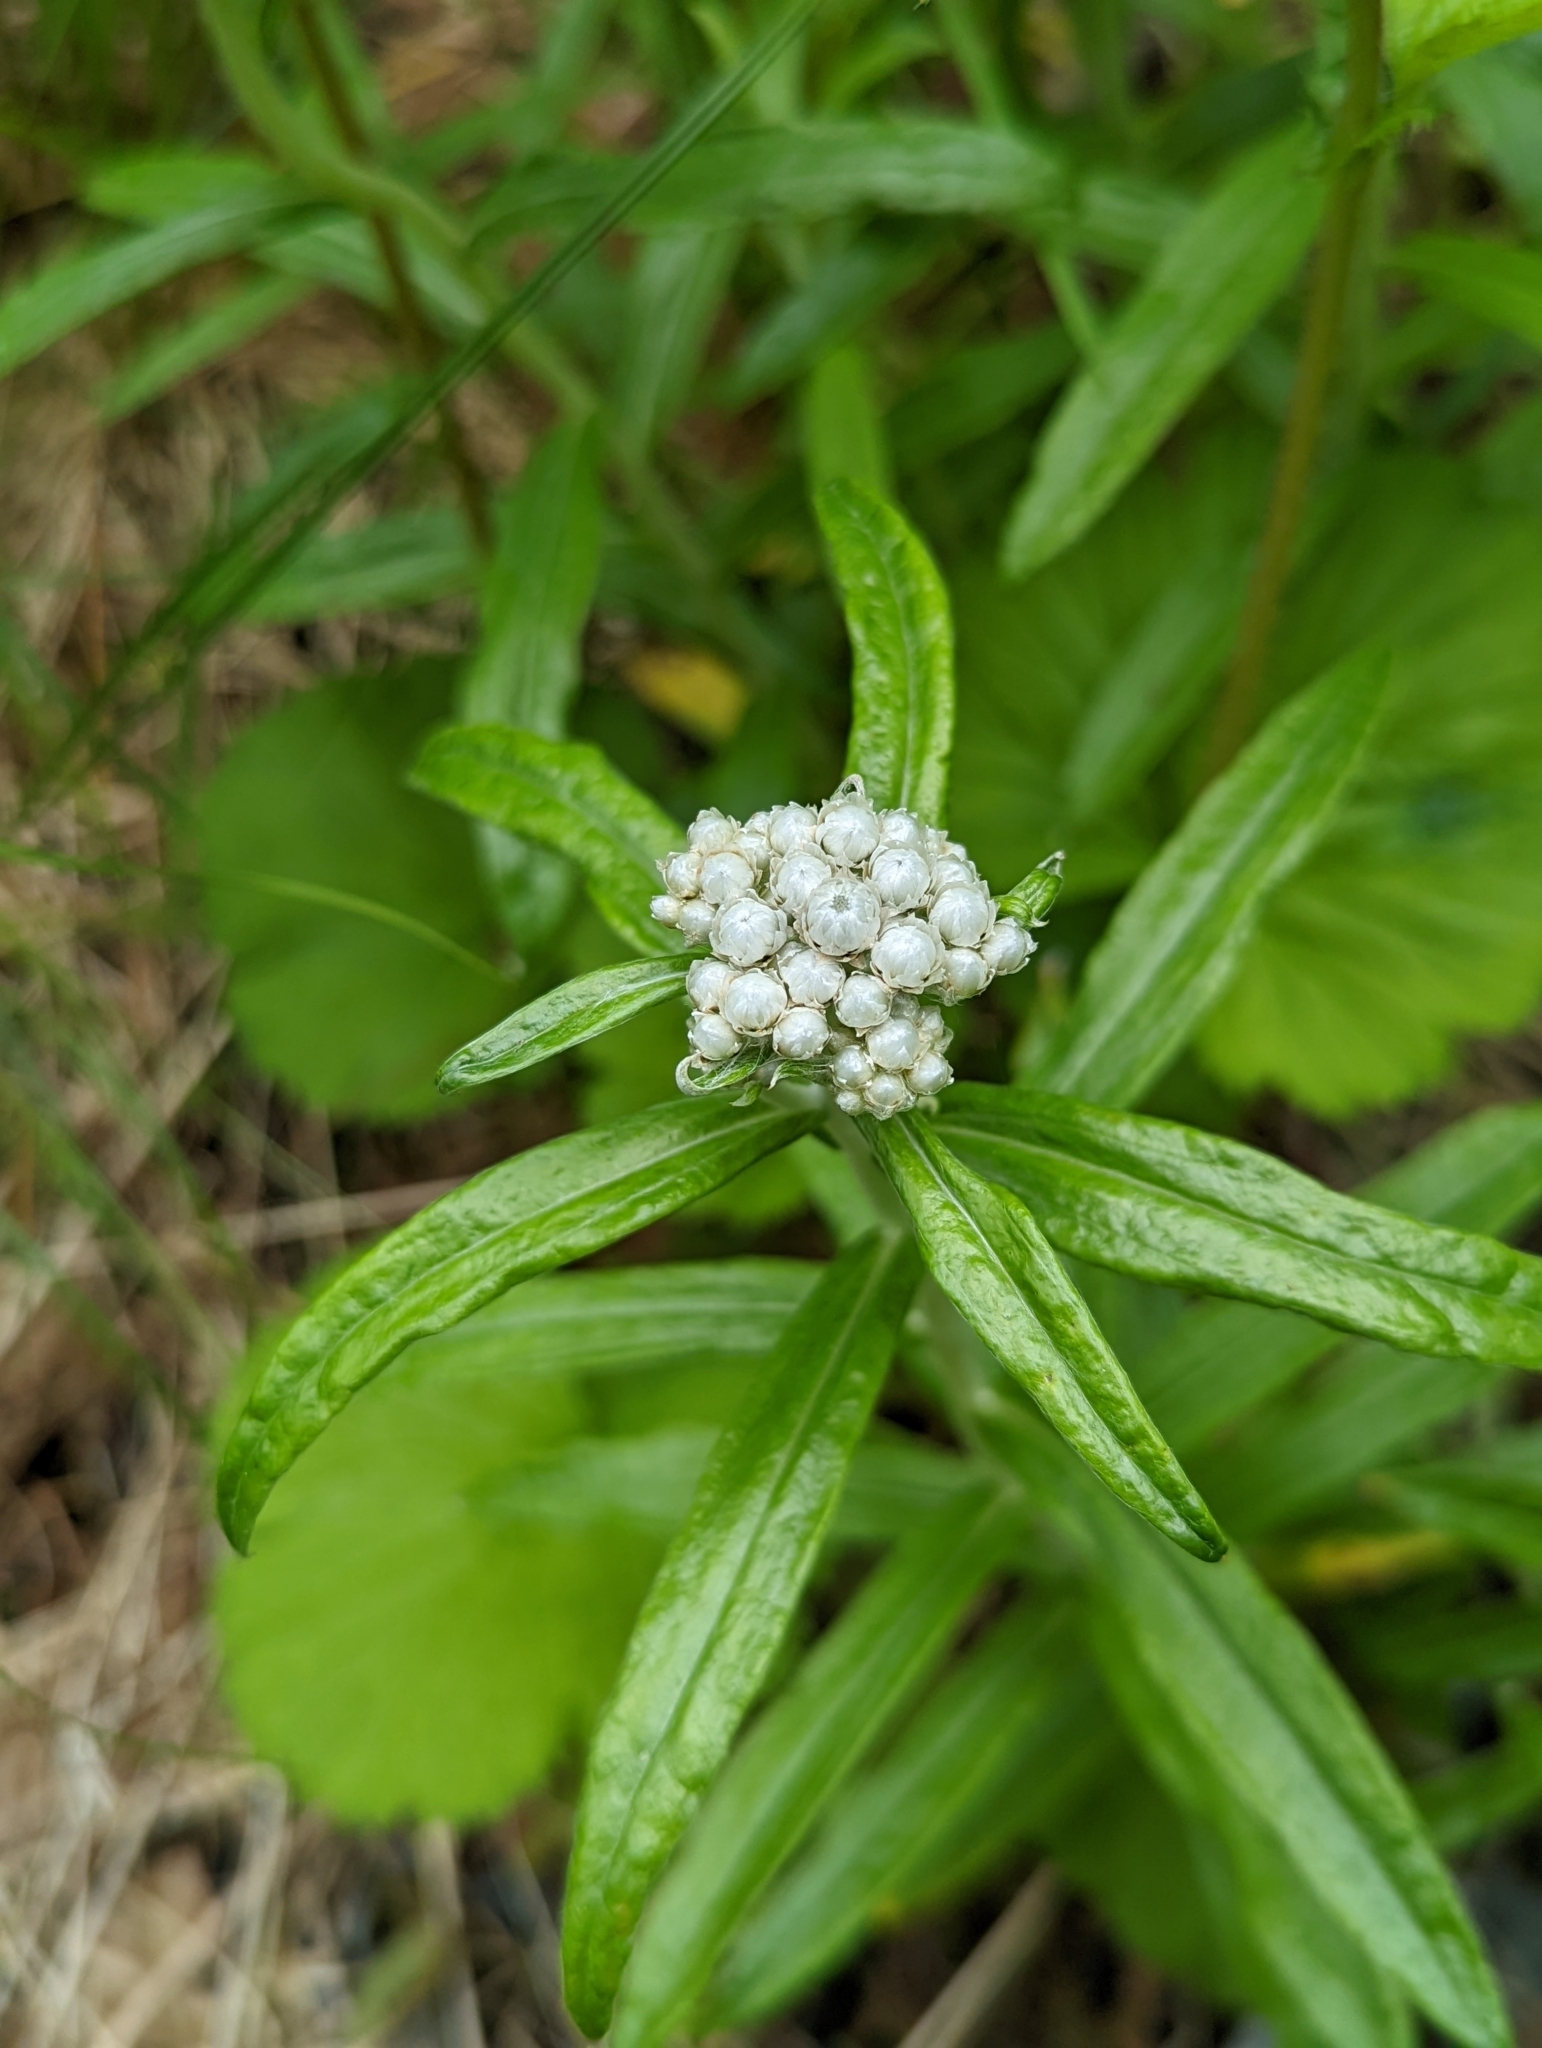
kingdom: Plantae
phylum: Tracheophyta
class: Magnoliopsida
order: Asterales
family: Asteraceae
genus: Anaphalis
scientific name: Anaphalis margaritacea
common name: Pearly everlasting
